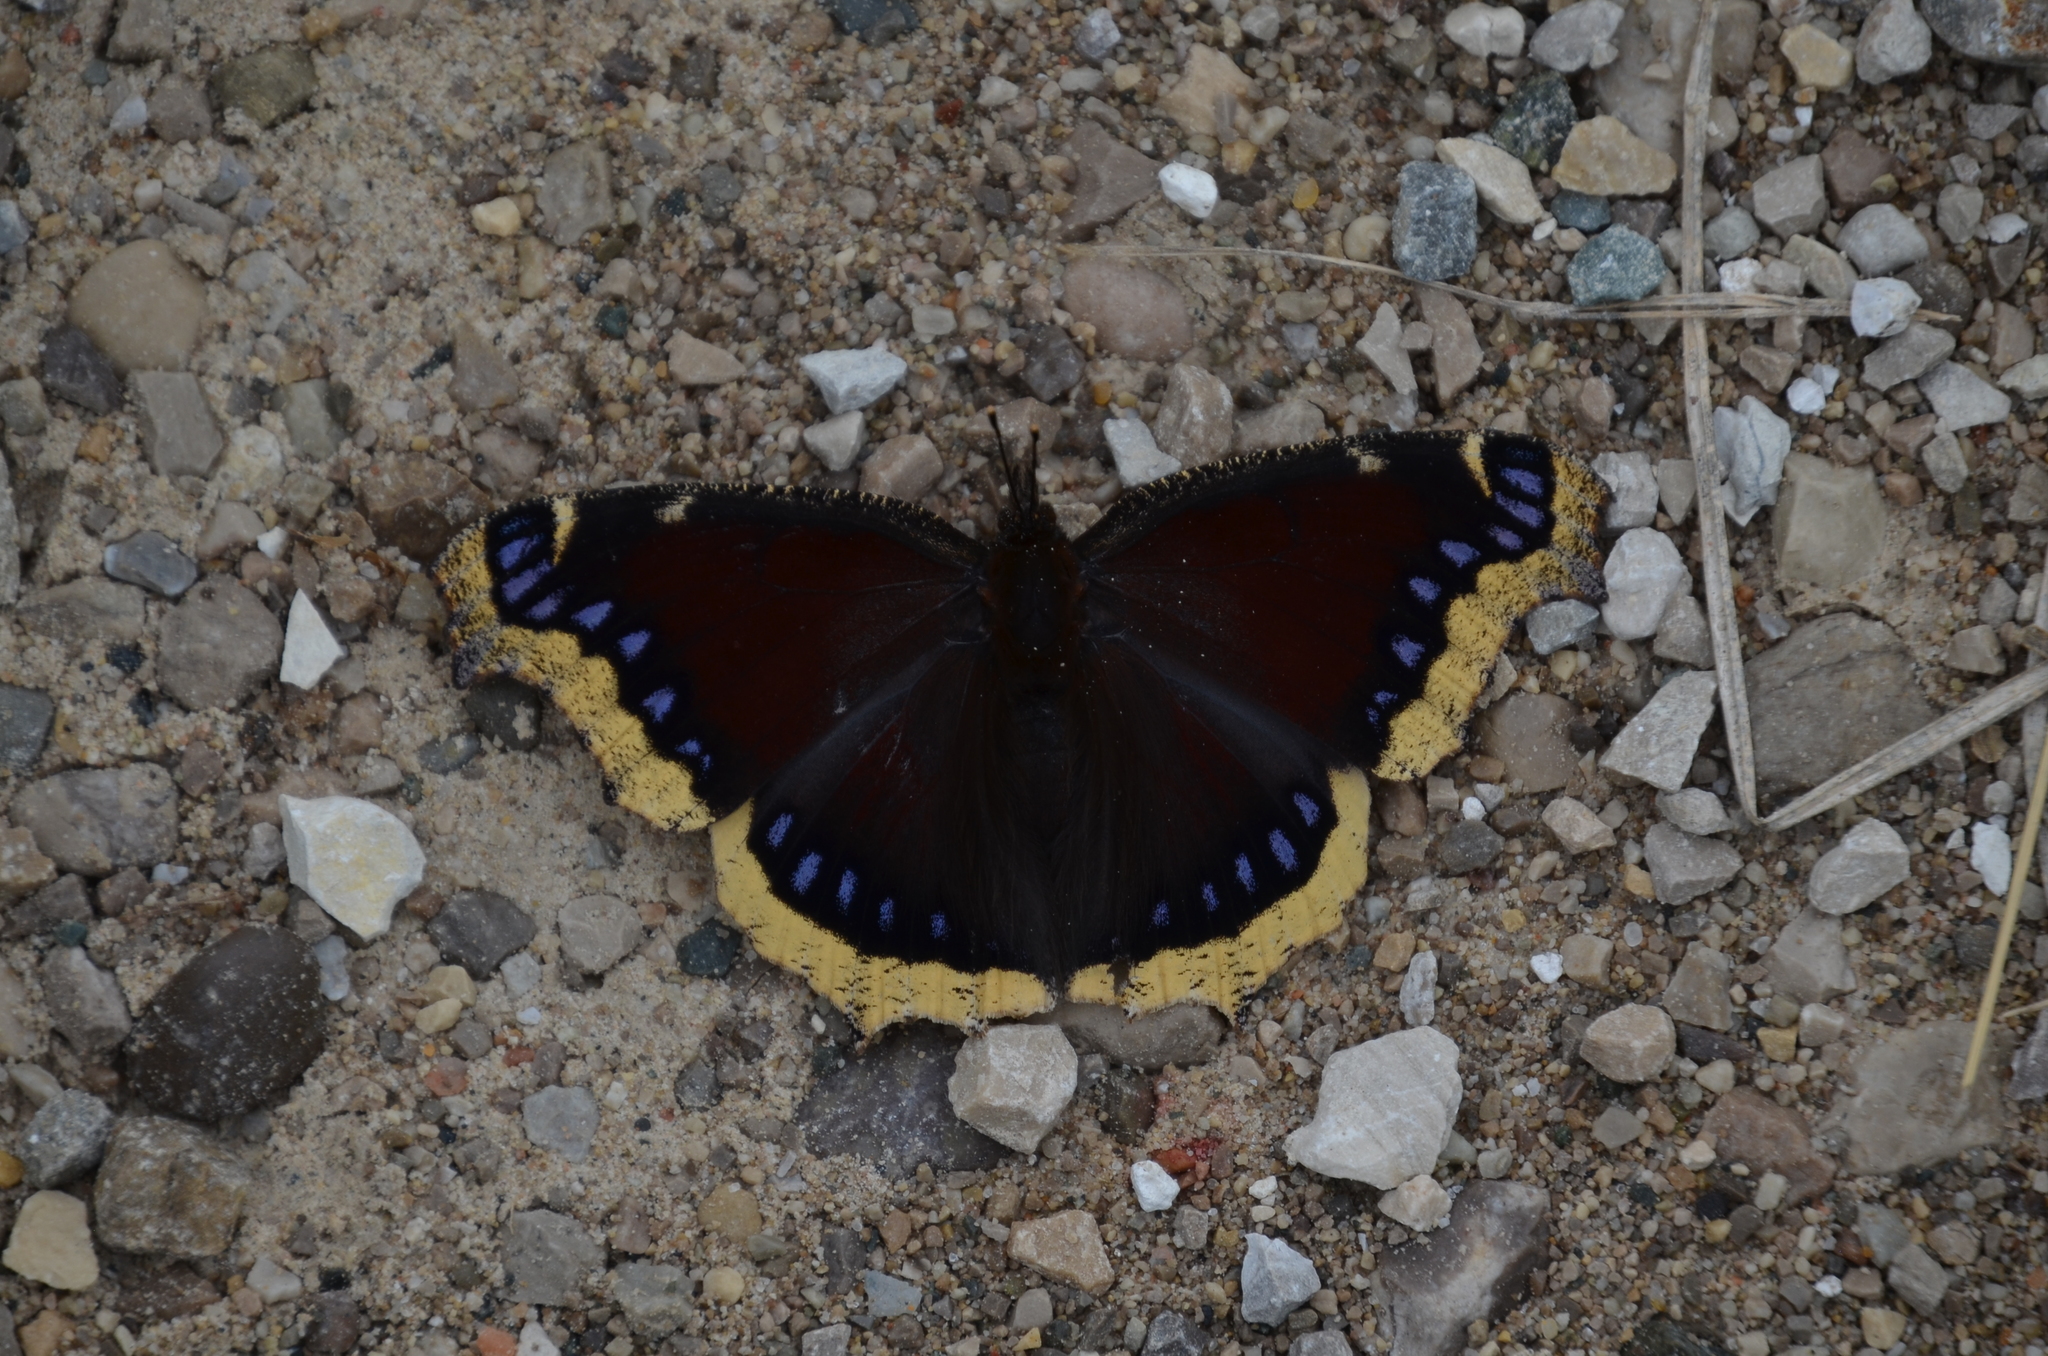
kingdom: Animalia
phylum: Arthropoda
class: Insecta
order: Lepidoptera
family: Nymphalidae
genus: Nymphalis
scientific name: Nymphalis antiopa
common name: Camberwell beauty
